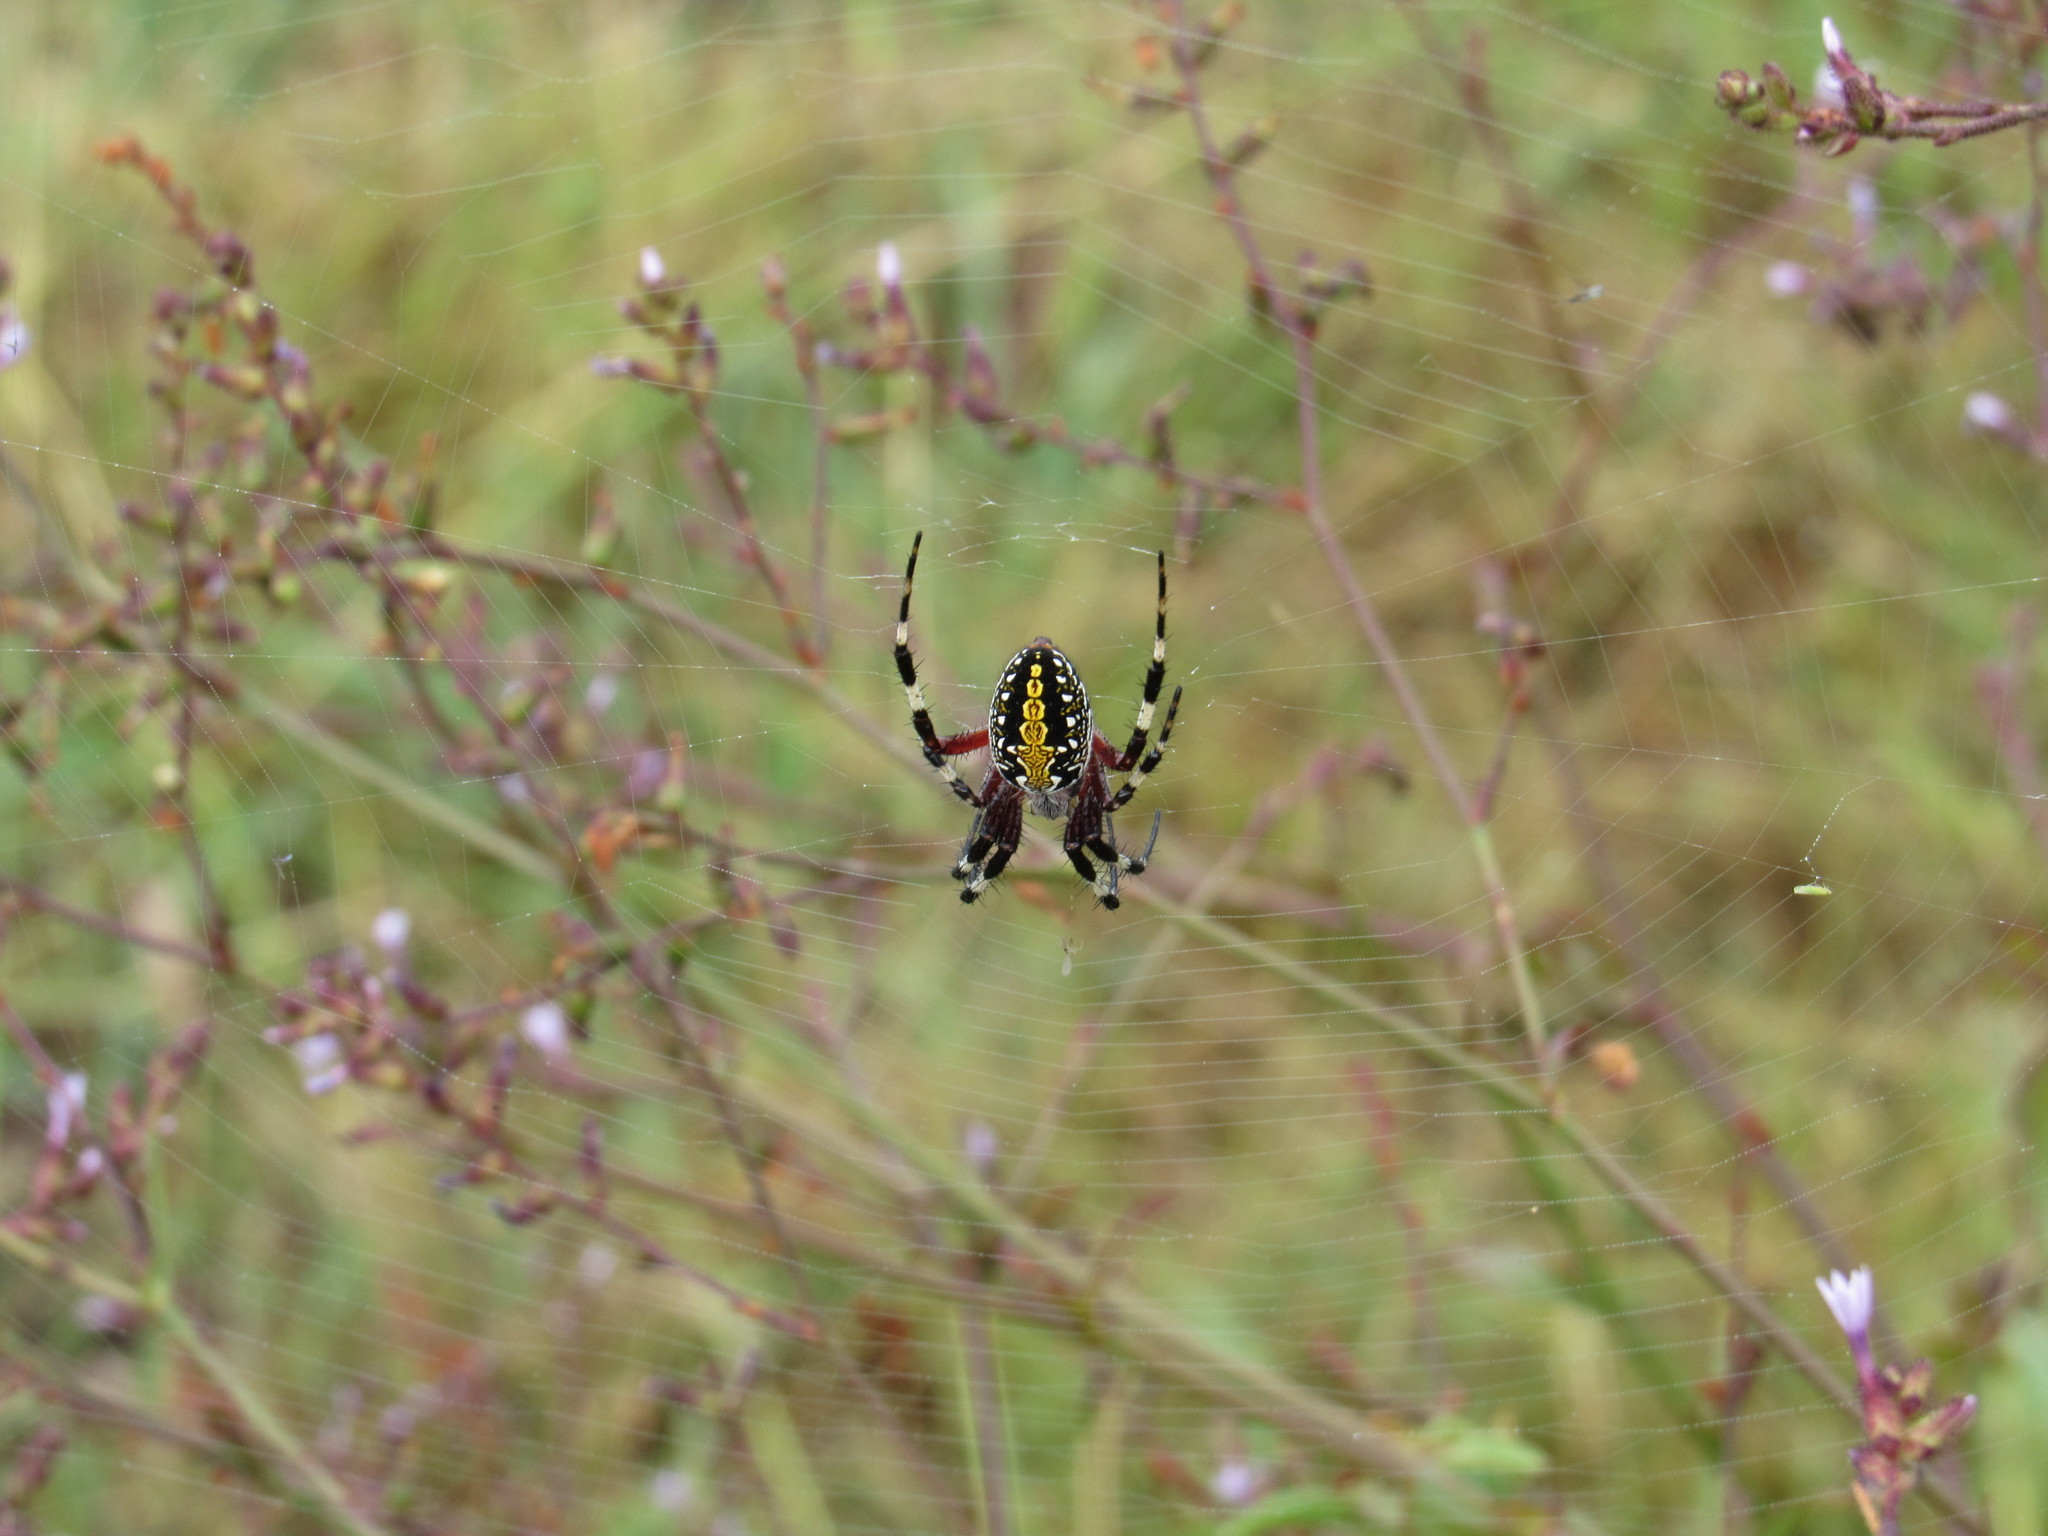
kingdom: Animalia
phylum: Arthropoda
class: Arachnida
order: Araneae
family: Araneidae
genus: Neoscona
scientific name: Neoscona oaxacensis
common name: Orb weavers
